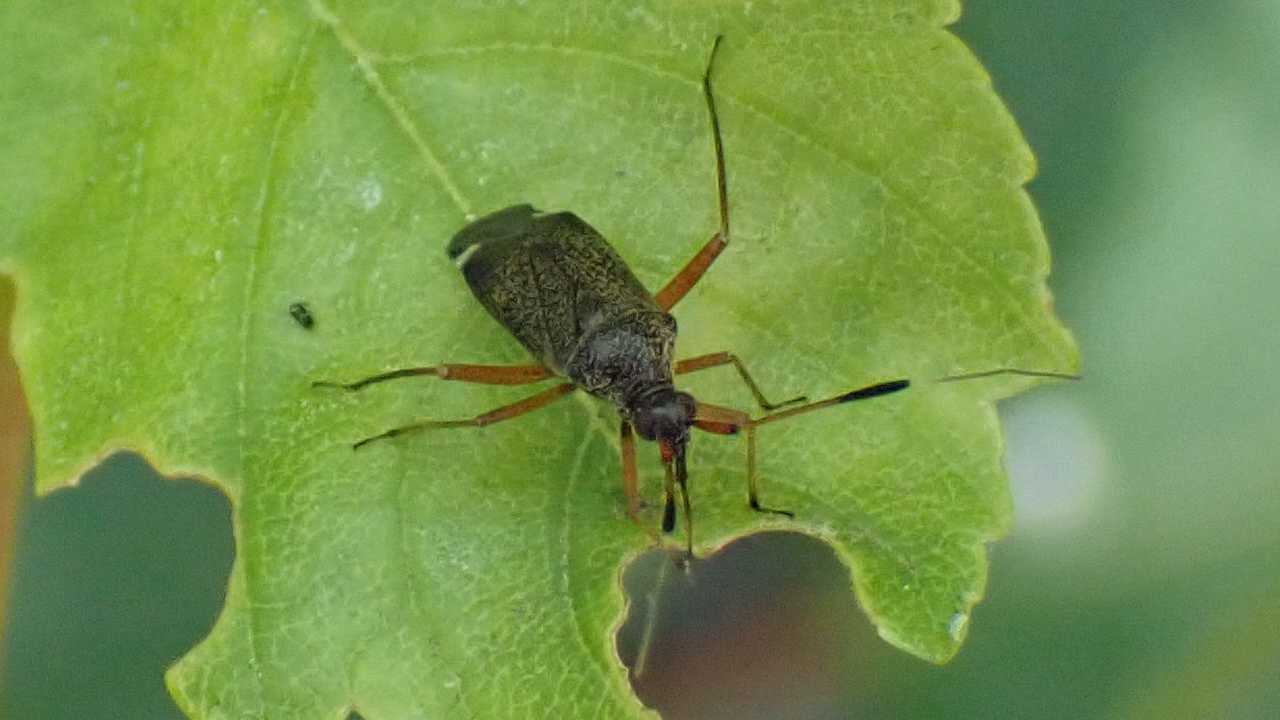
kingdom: Animalia
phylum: Arthropoda
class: Insecta
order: Hemiptera
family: Miridae
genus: Closterotomus
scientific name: Closterotomus biclavatus
